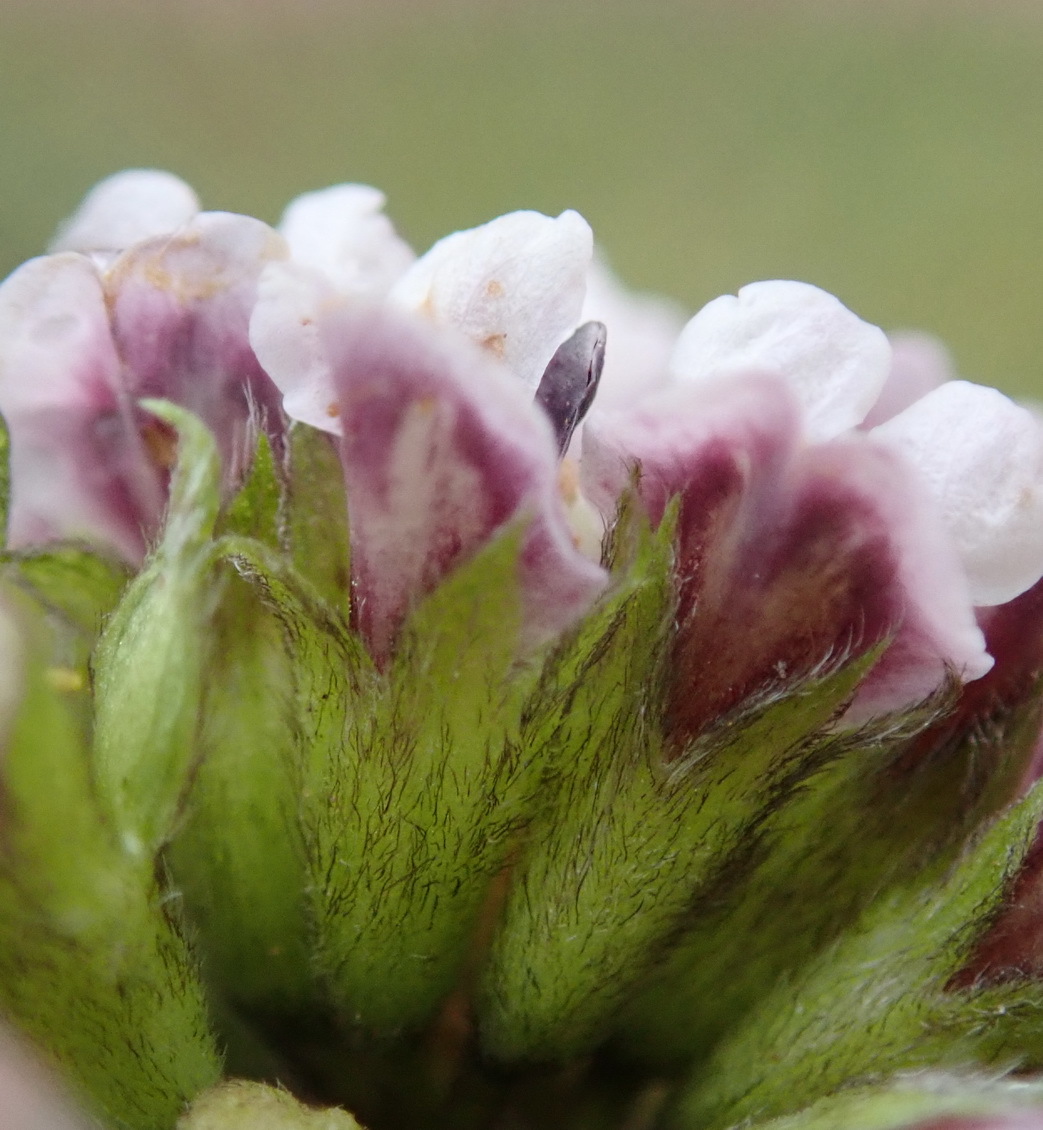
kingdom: Plantae
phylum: Tracheophyta
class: Magnoliopsida
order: Fabales
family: Fabaceae
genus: Psoralea
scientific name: Psoralea stachyera
